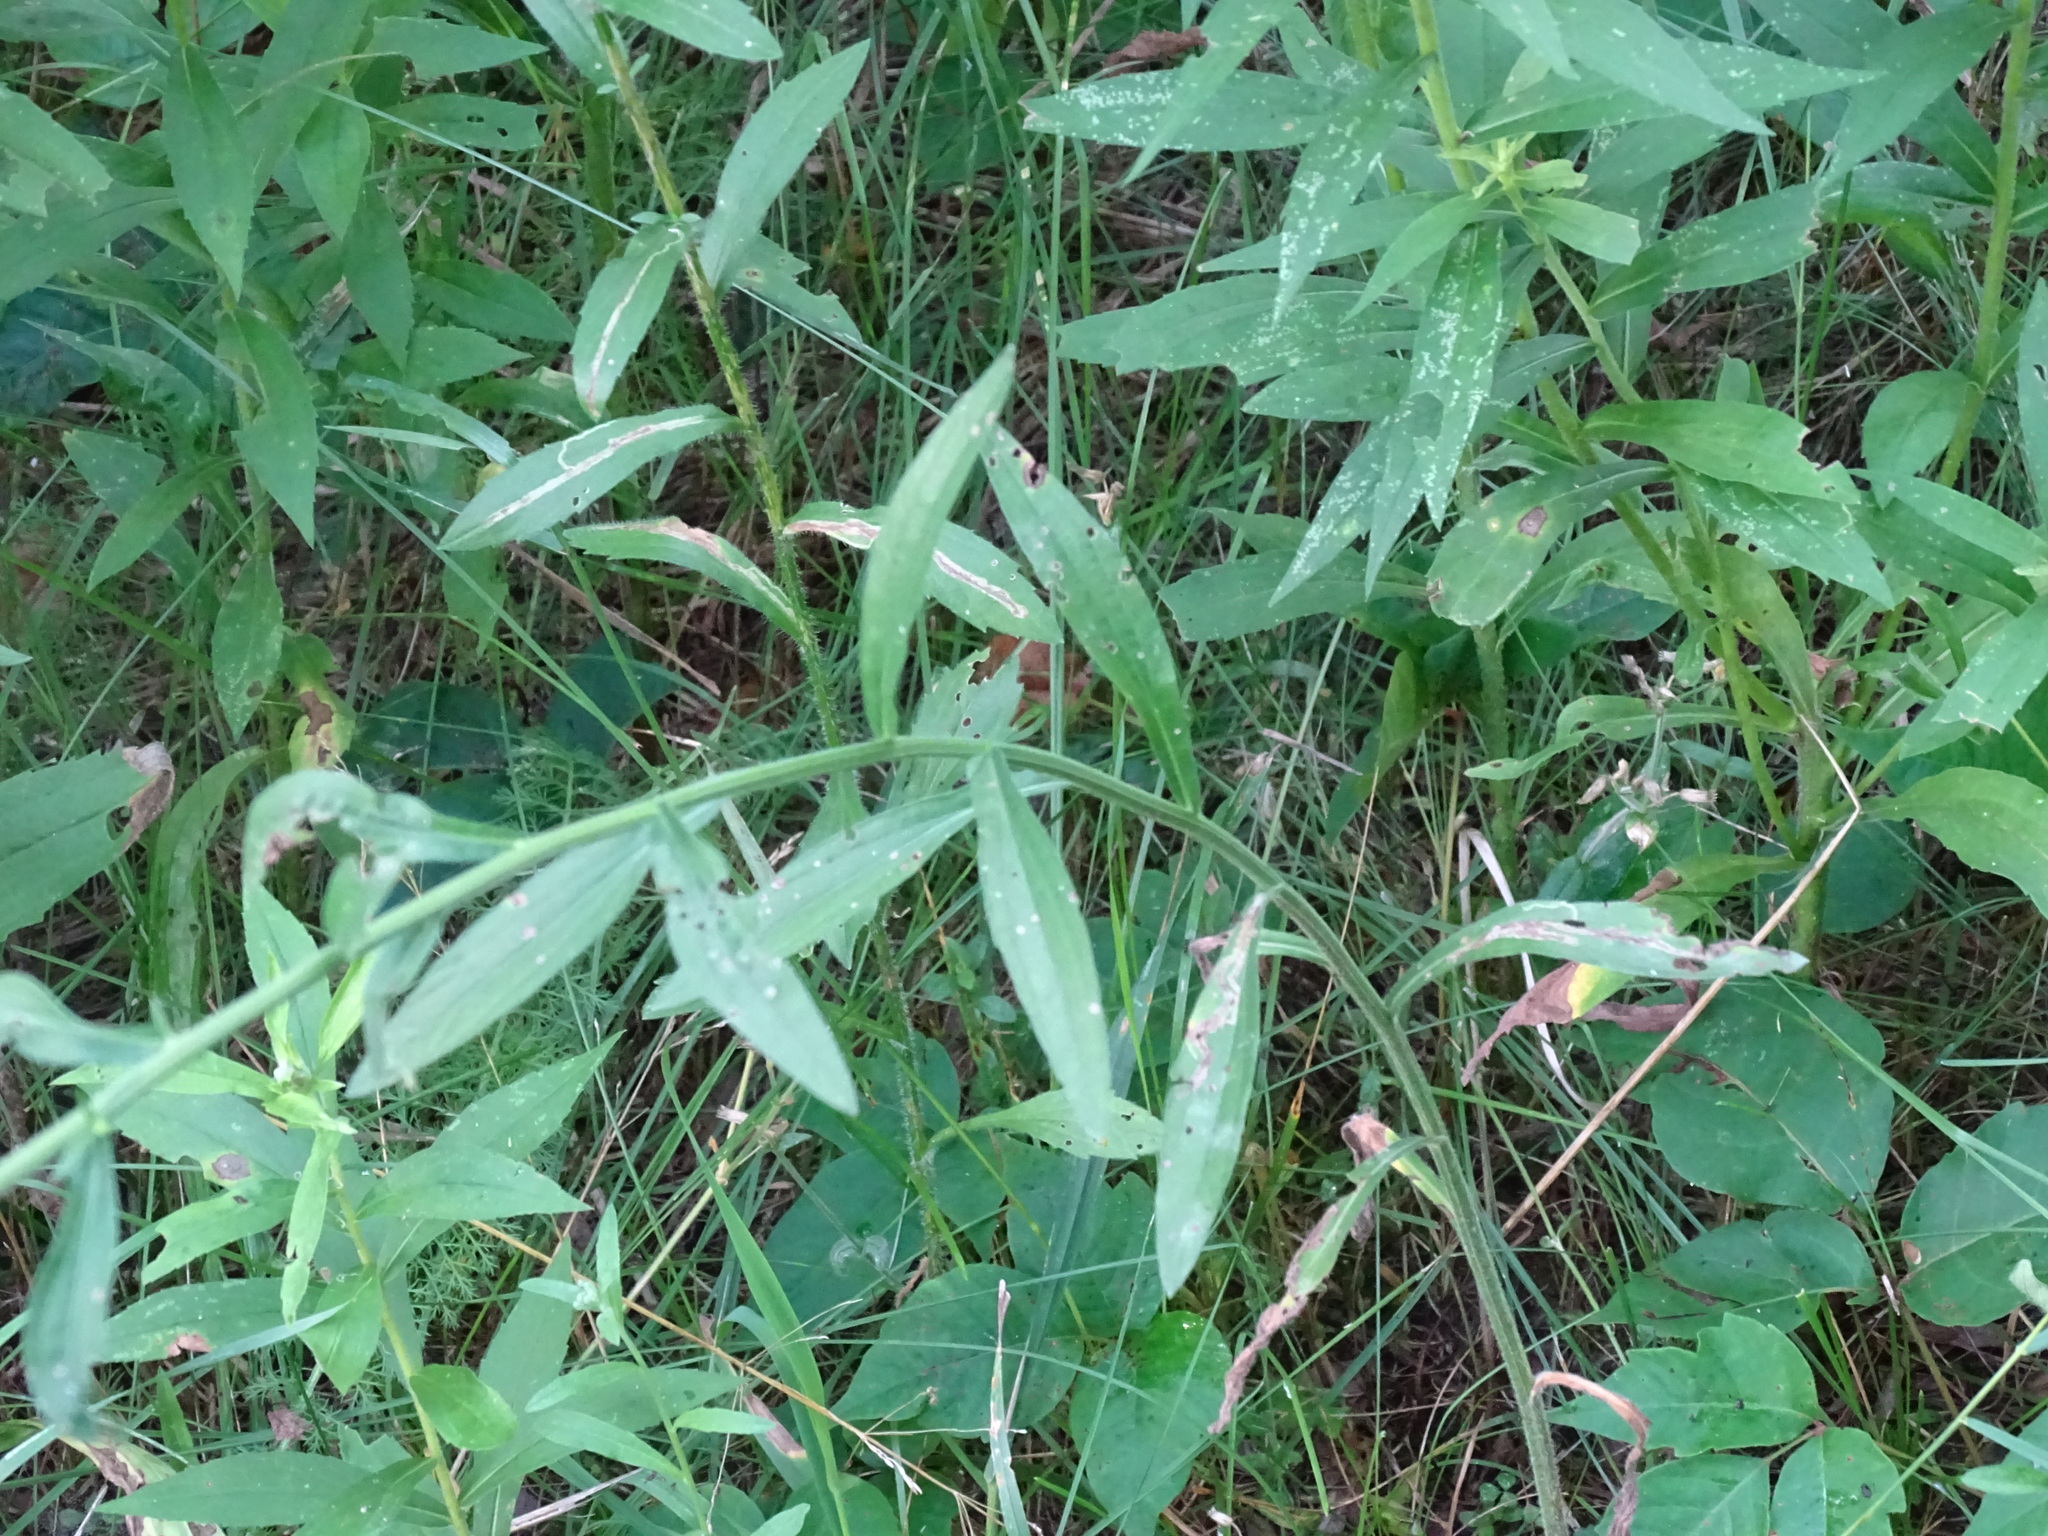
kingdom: Plantae
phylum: Tracheophyta
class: Magnoliopsida
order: Asterales
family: Asteraceae
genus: Erigeron
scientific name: Erigeron strigosus
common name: Common eastern fleabane
